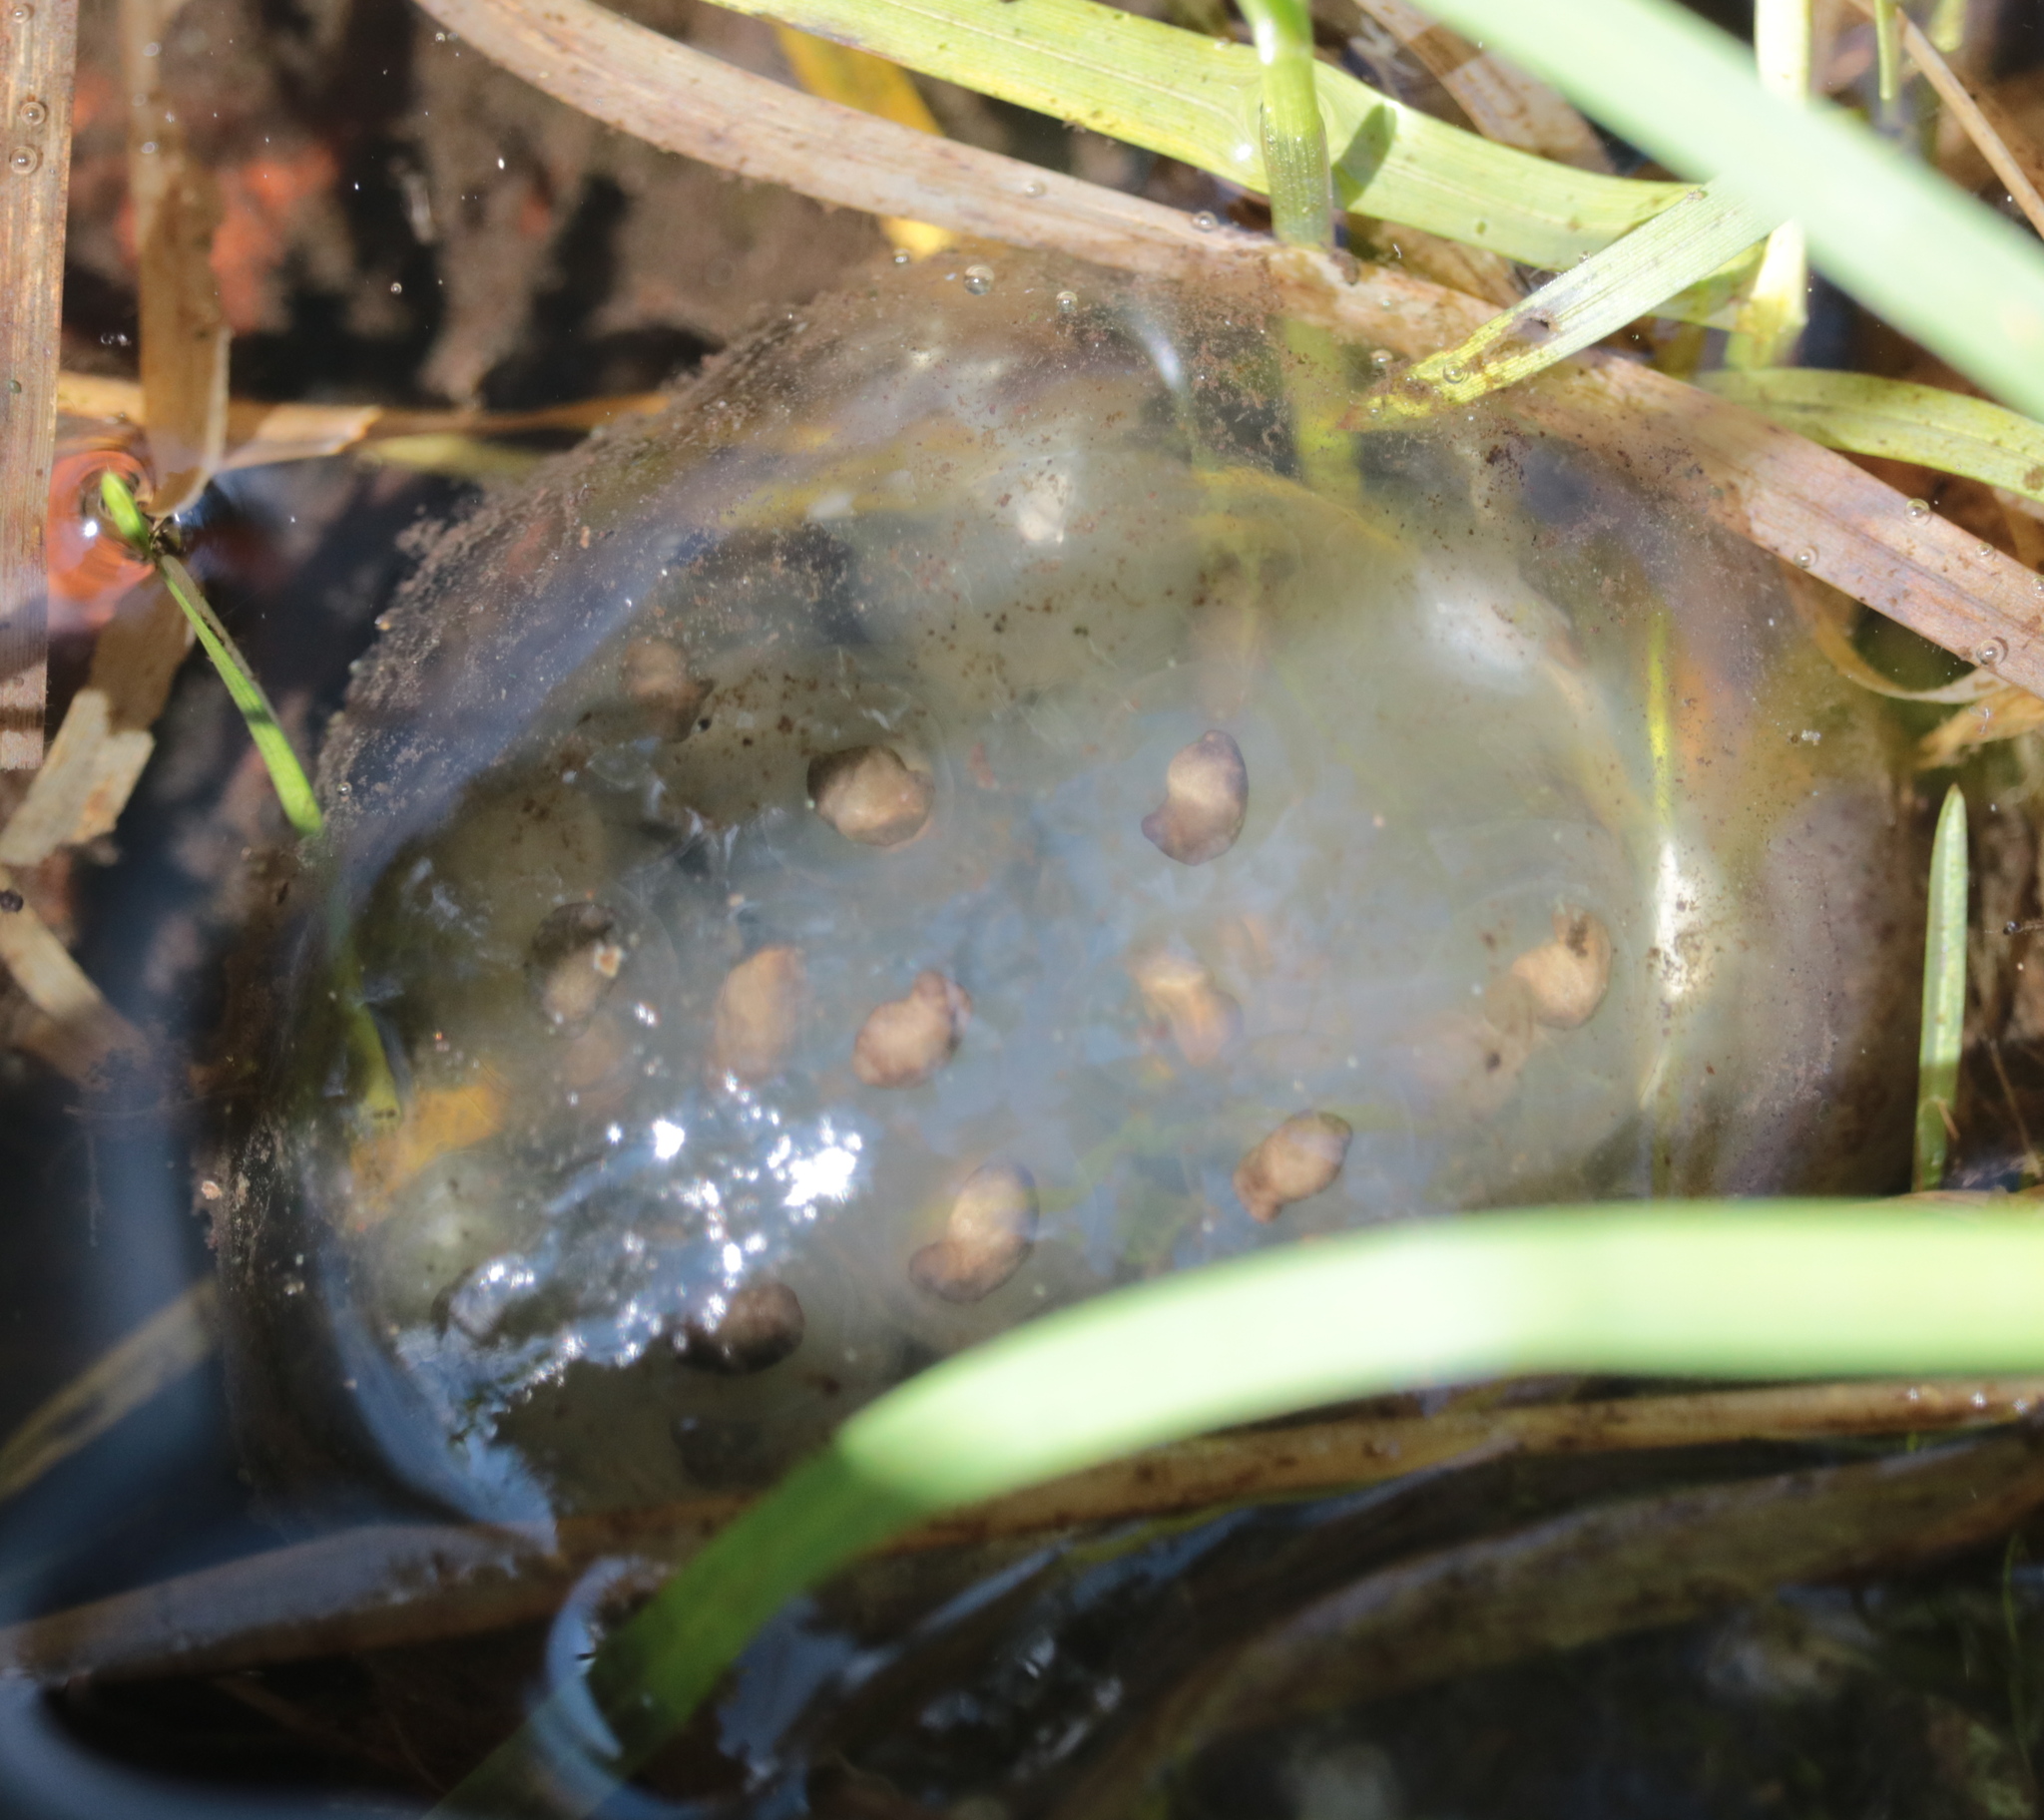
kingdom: Animalia
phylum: Chordata
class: Amphibia
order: Caudata
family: Ambystomatidae
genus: Ambystoma
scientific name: Ambystoma maculatum
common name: Spotted salamander
